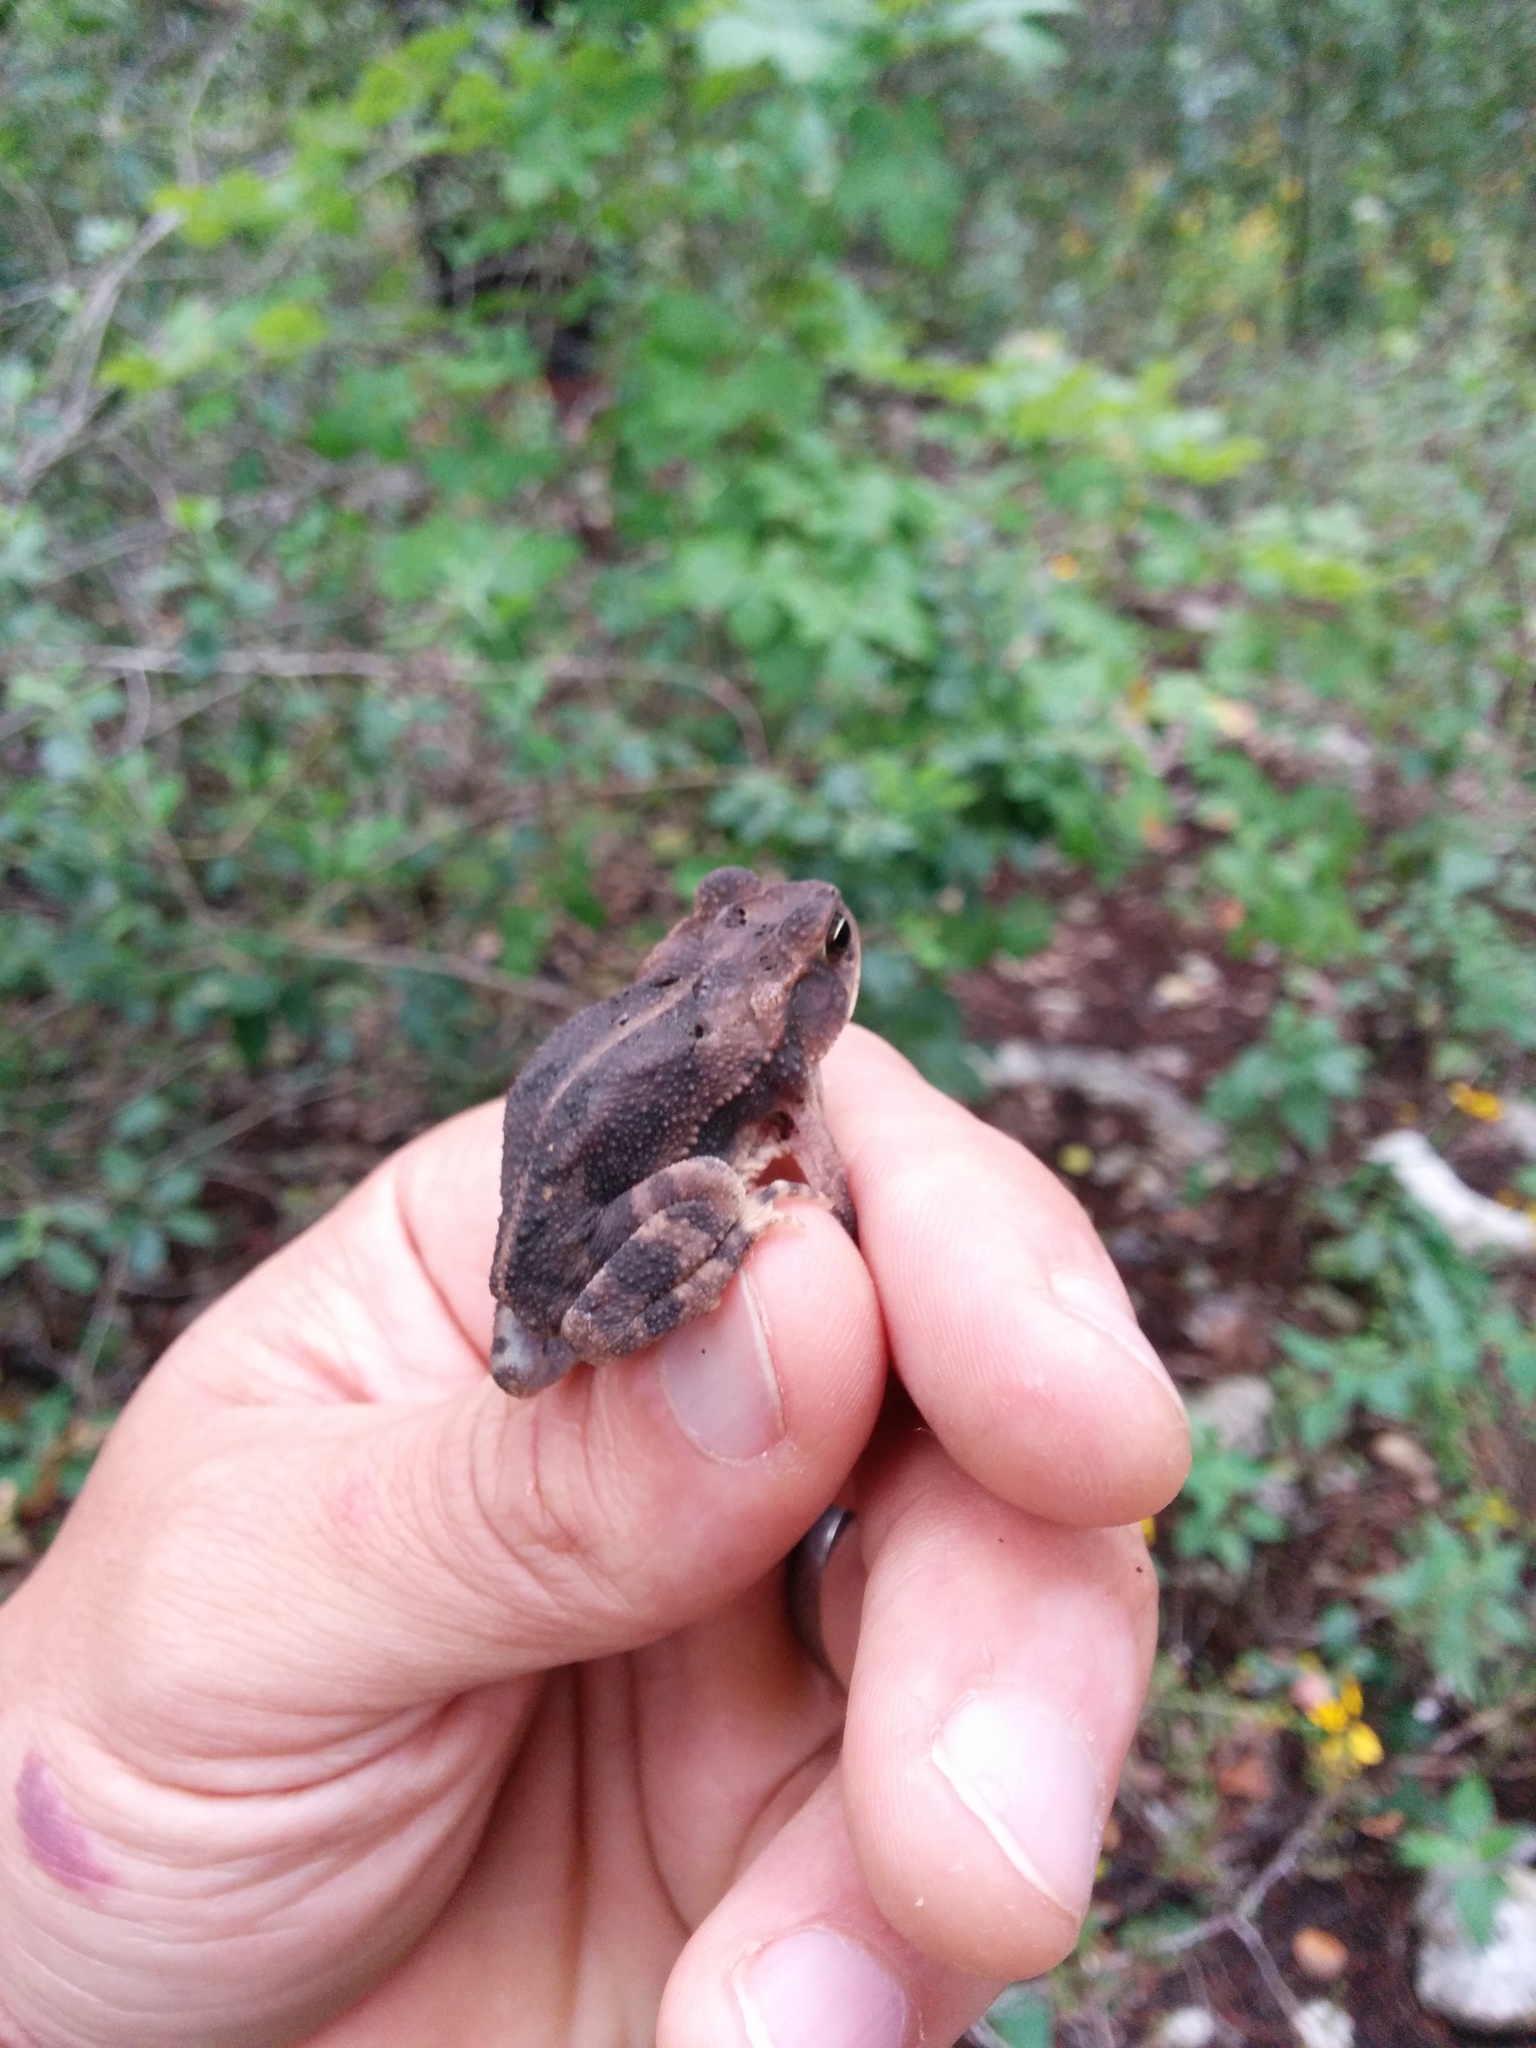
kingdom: Animalia
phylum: Chordata
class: Amphibia
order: Anura
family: Bufonidae
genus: Incilius
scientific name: Incilius nebulifer
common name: Gulf coast toad
